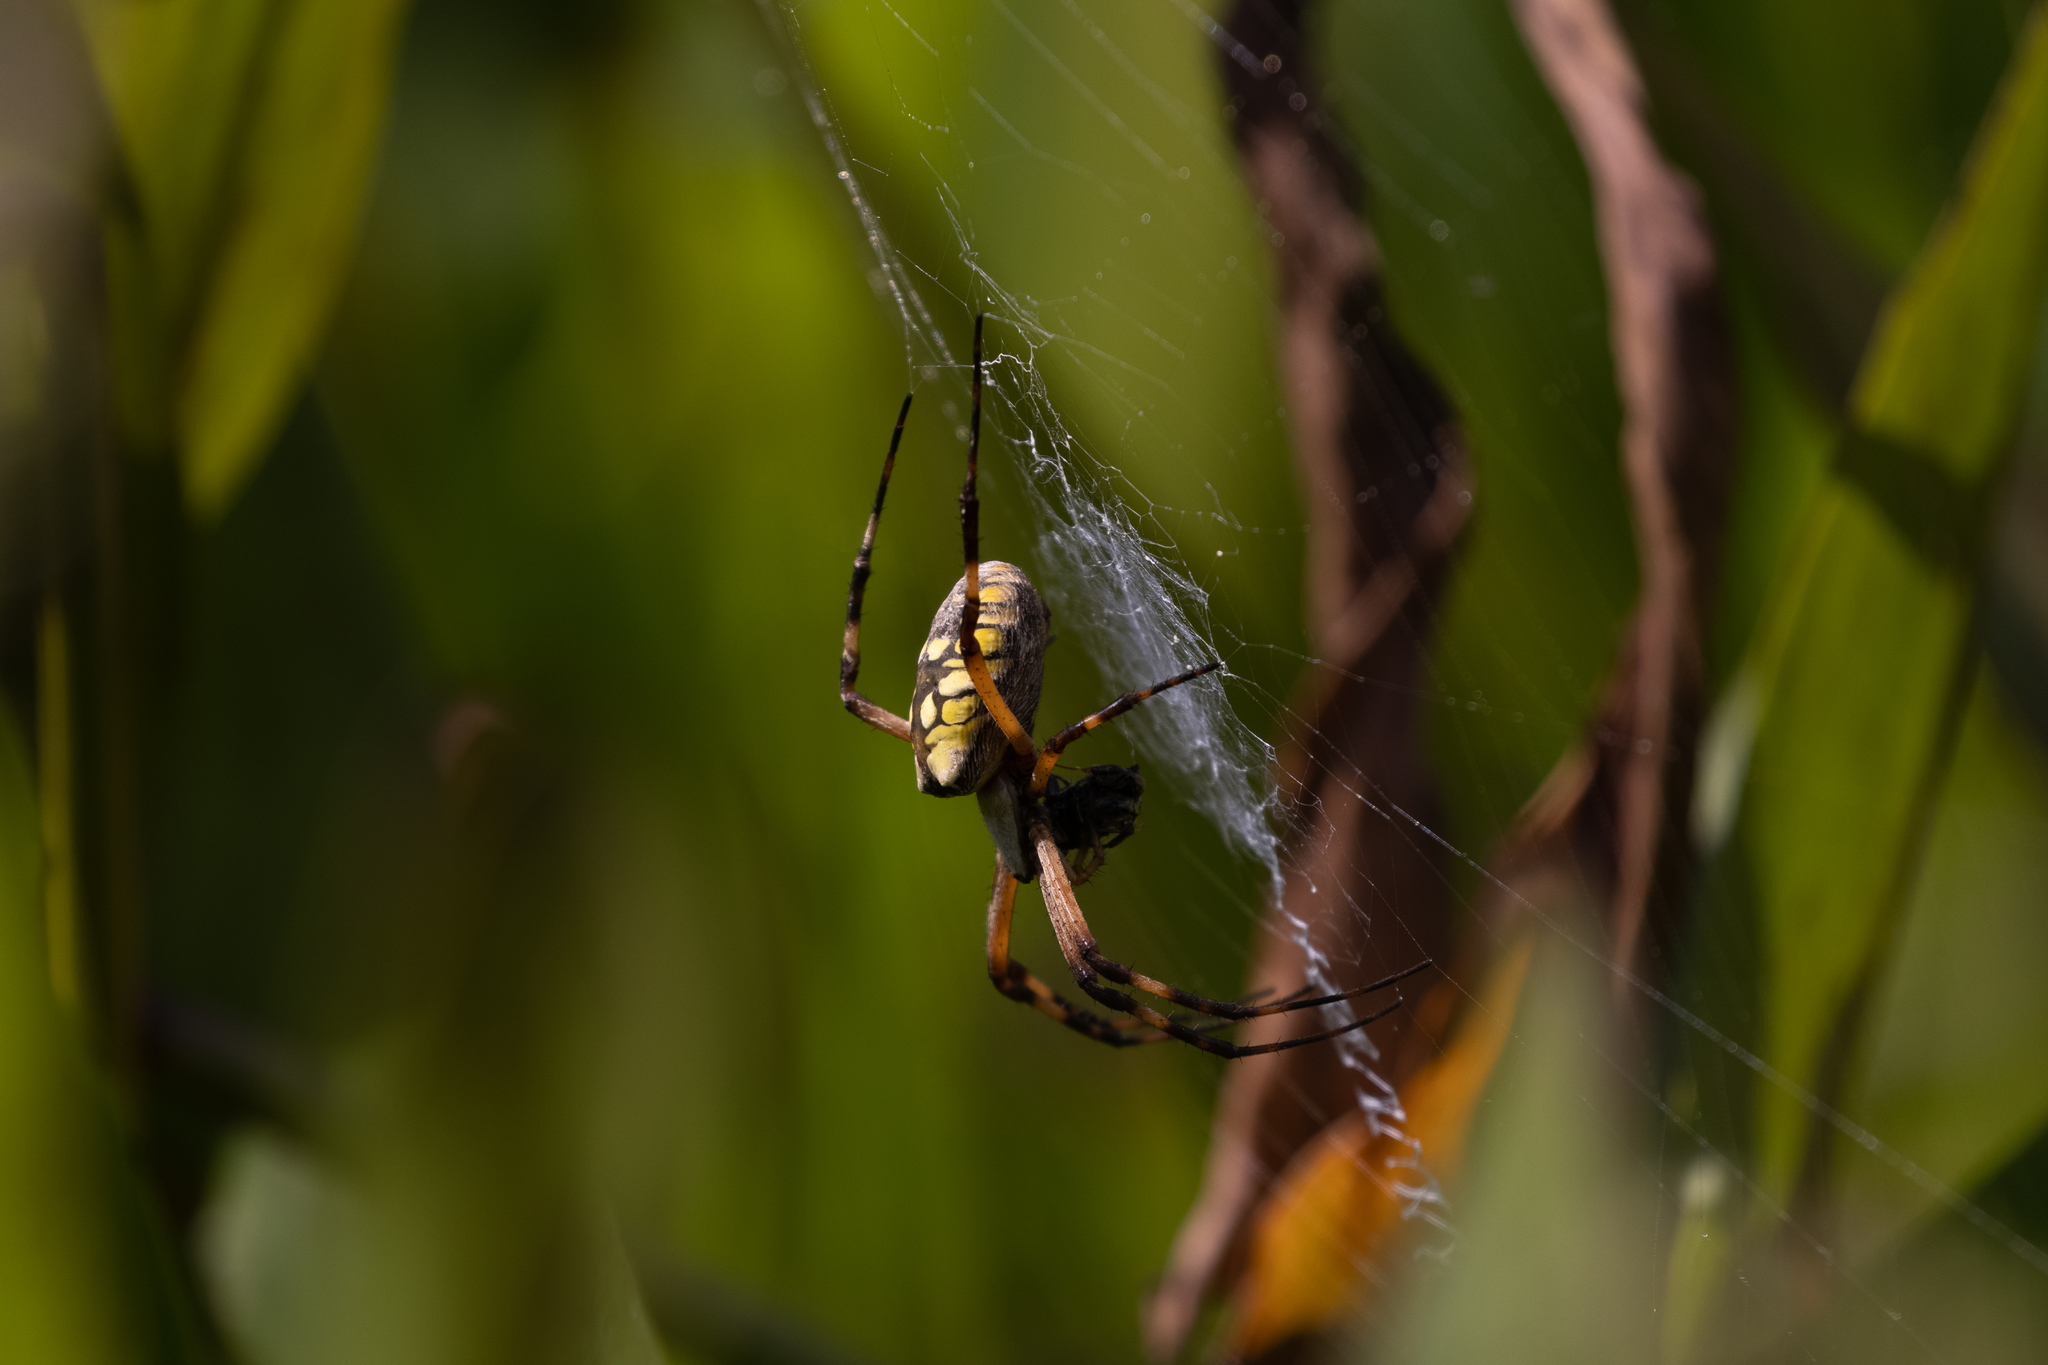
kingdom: Animalia
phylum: Arthropoda
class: Arachnida
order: Araneae
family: Araneidae
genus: Argiope
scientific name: Argiope aurantia
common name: Orb weavers
